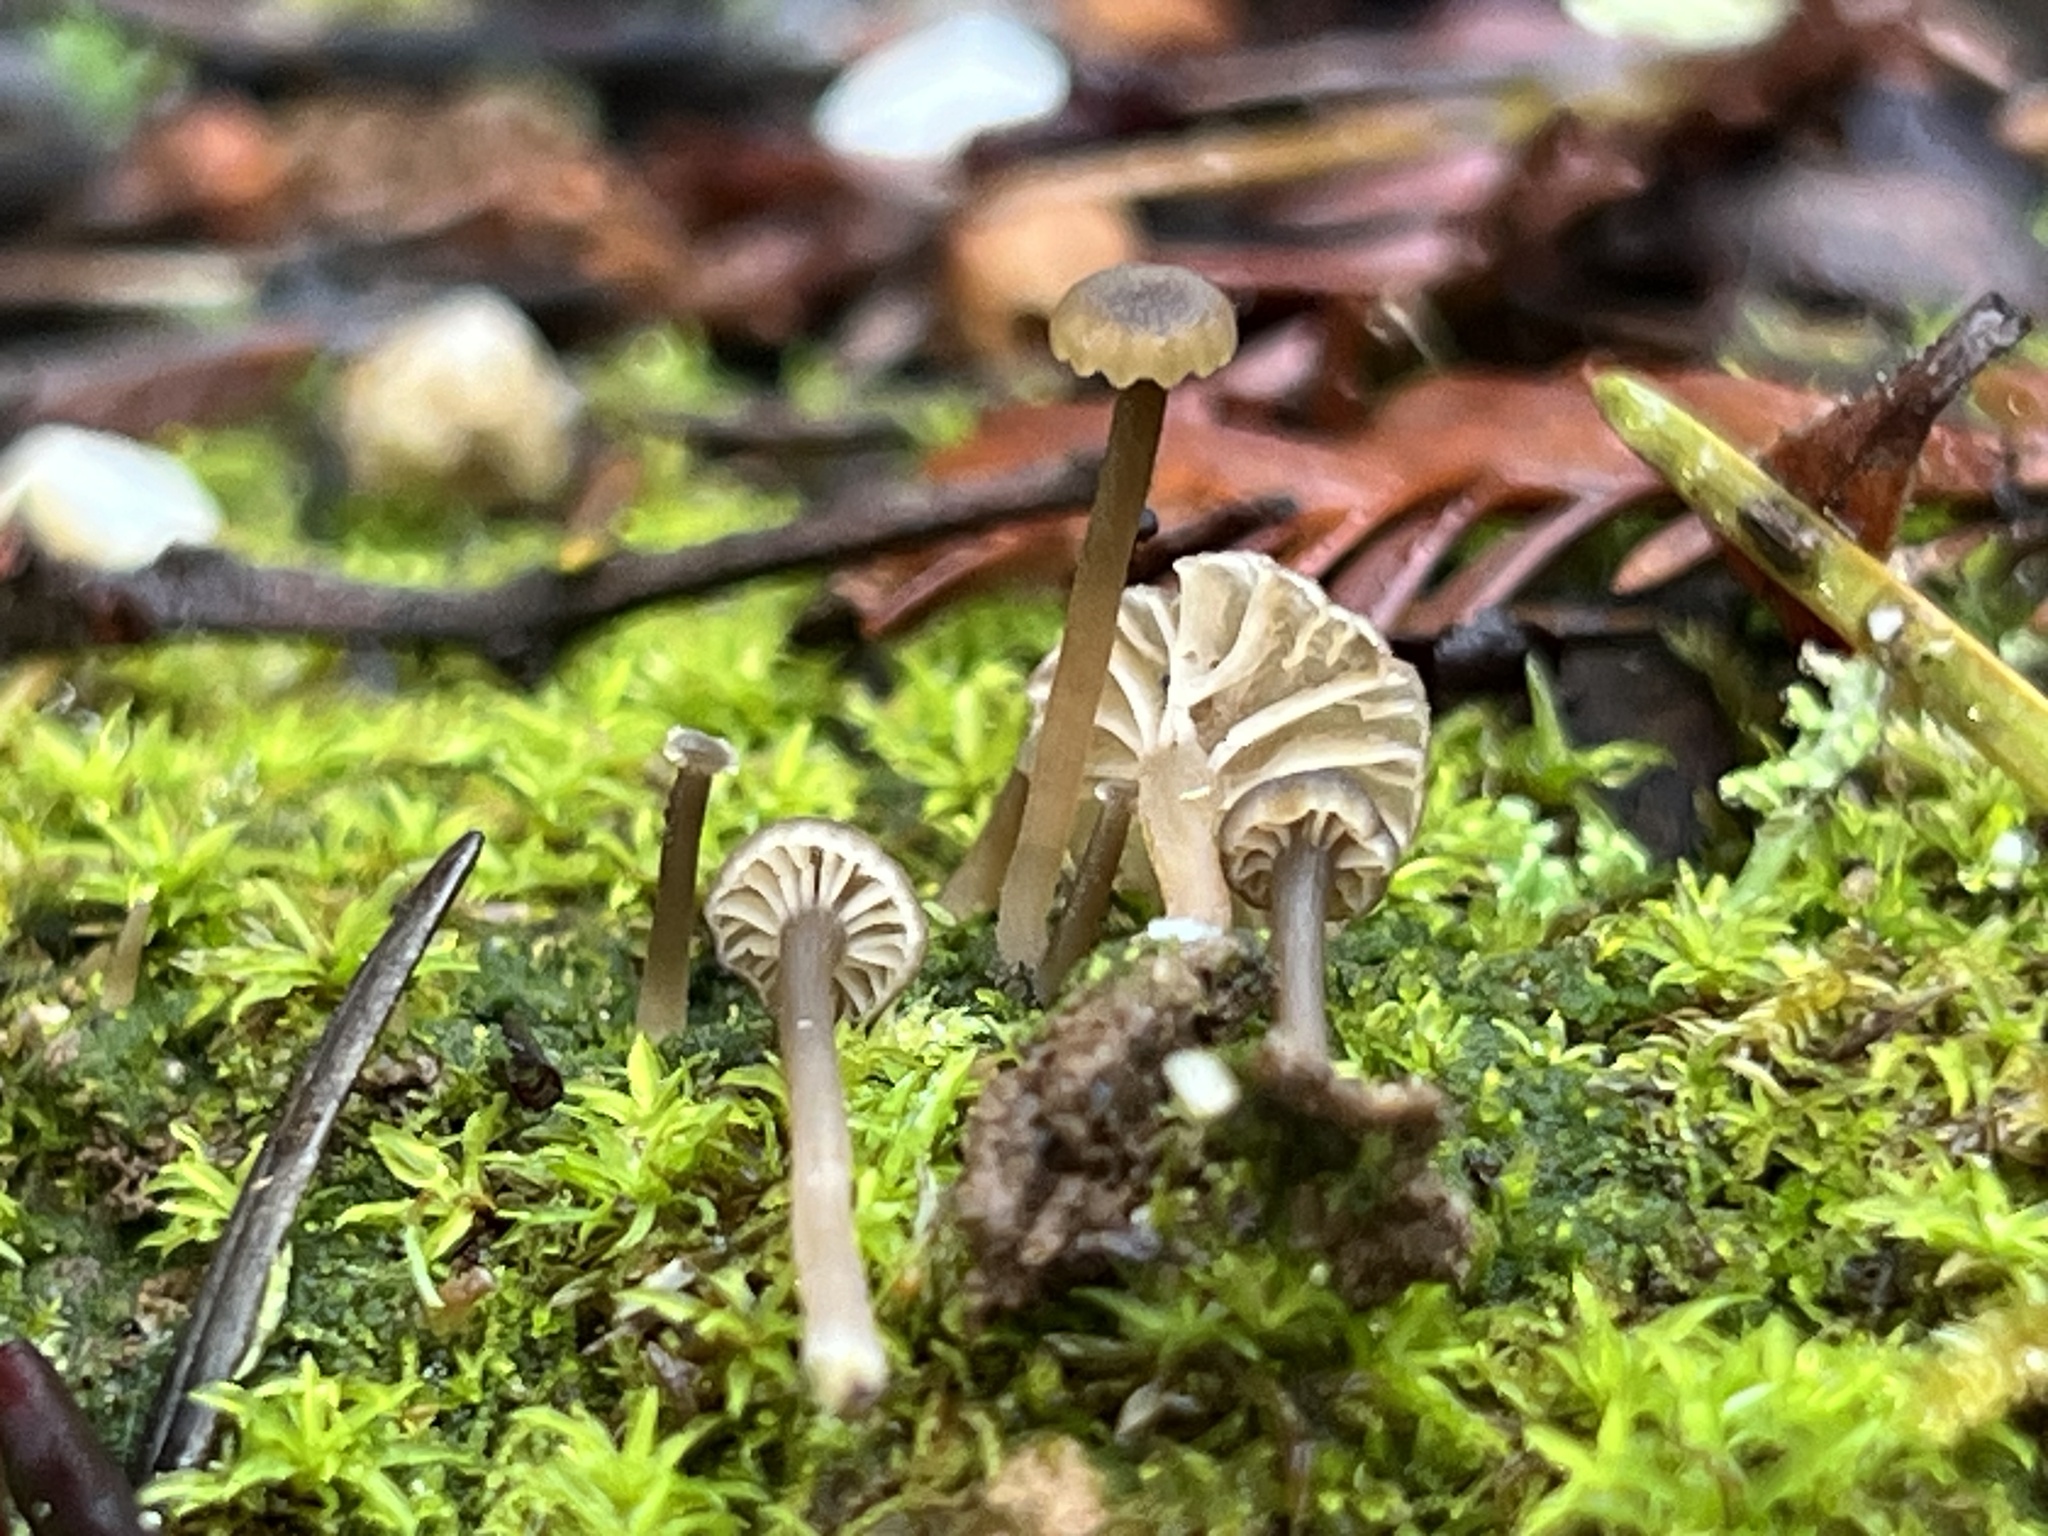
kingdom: Fungi
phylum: Basidiomycota
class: Agaricomycetes
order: Agaricales
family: Hygrophoraceae
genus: Lichenomphalia
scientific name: Lichenomphalia
